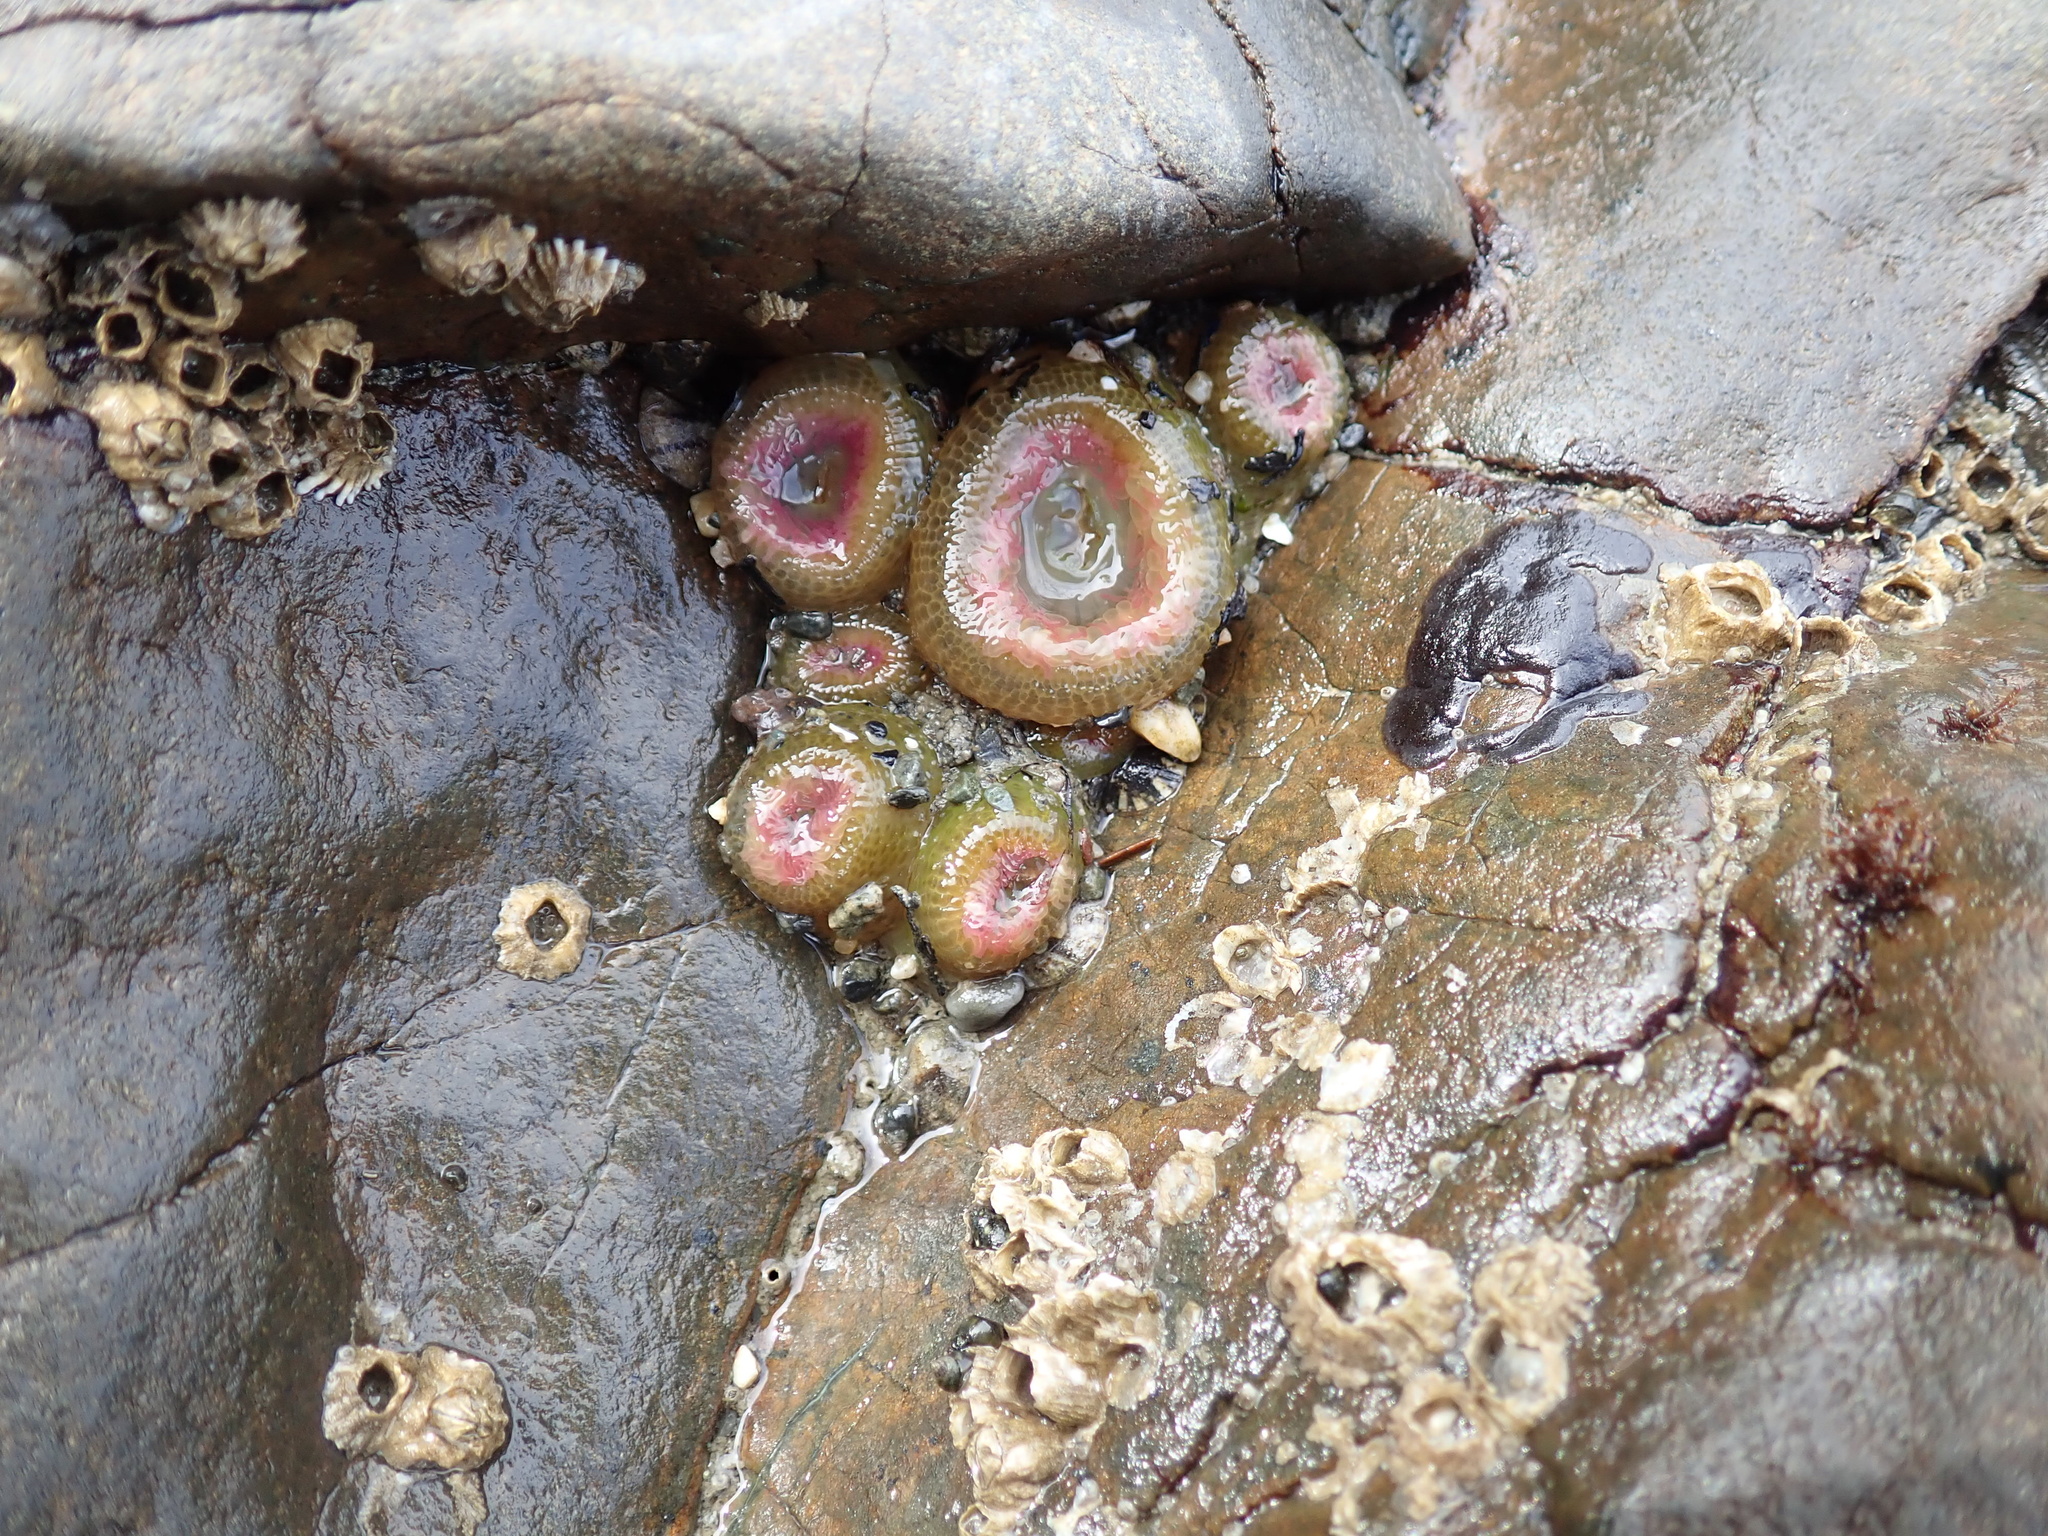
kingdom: Animalia
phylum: Cnidaria
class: Anthozoa
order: Actiniaria
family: Actiniidae
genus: Anthopleura
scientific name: Anthopleura elegantissima
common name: Clonal anemone
